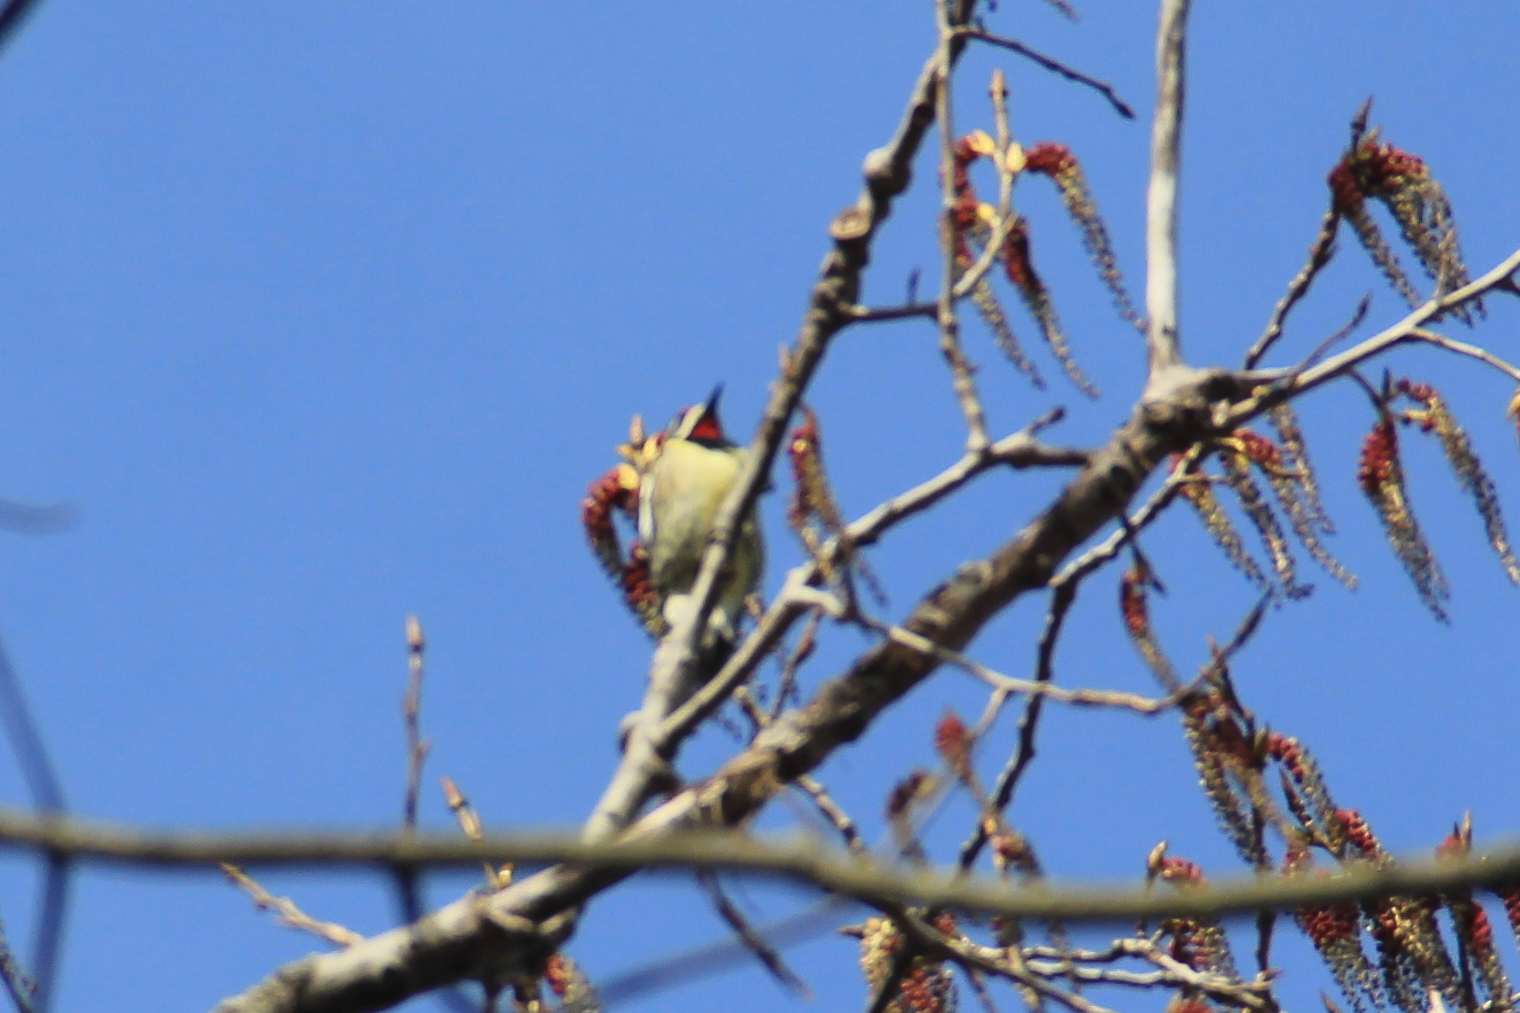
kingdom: Animalia
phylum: Chordata
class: Aves
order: Piciformes
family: Picidae
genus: Sphyrapicus
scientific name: Sphyrapicus varius
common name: Yellow-bellied sapsucker
